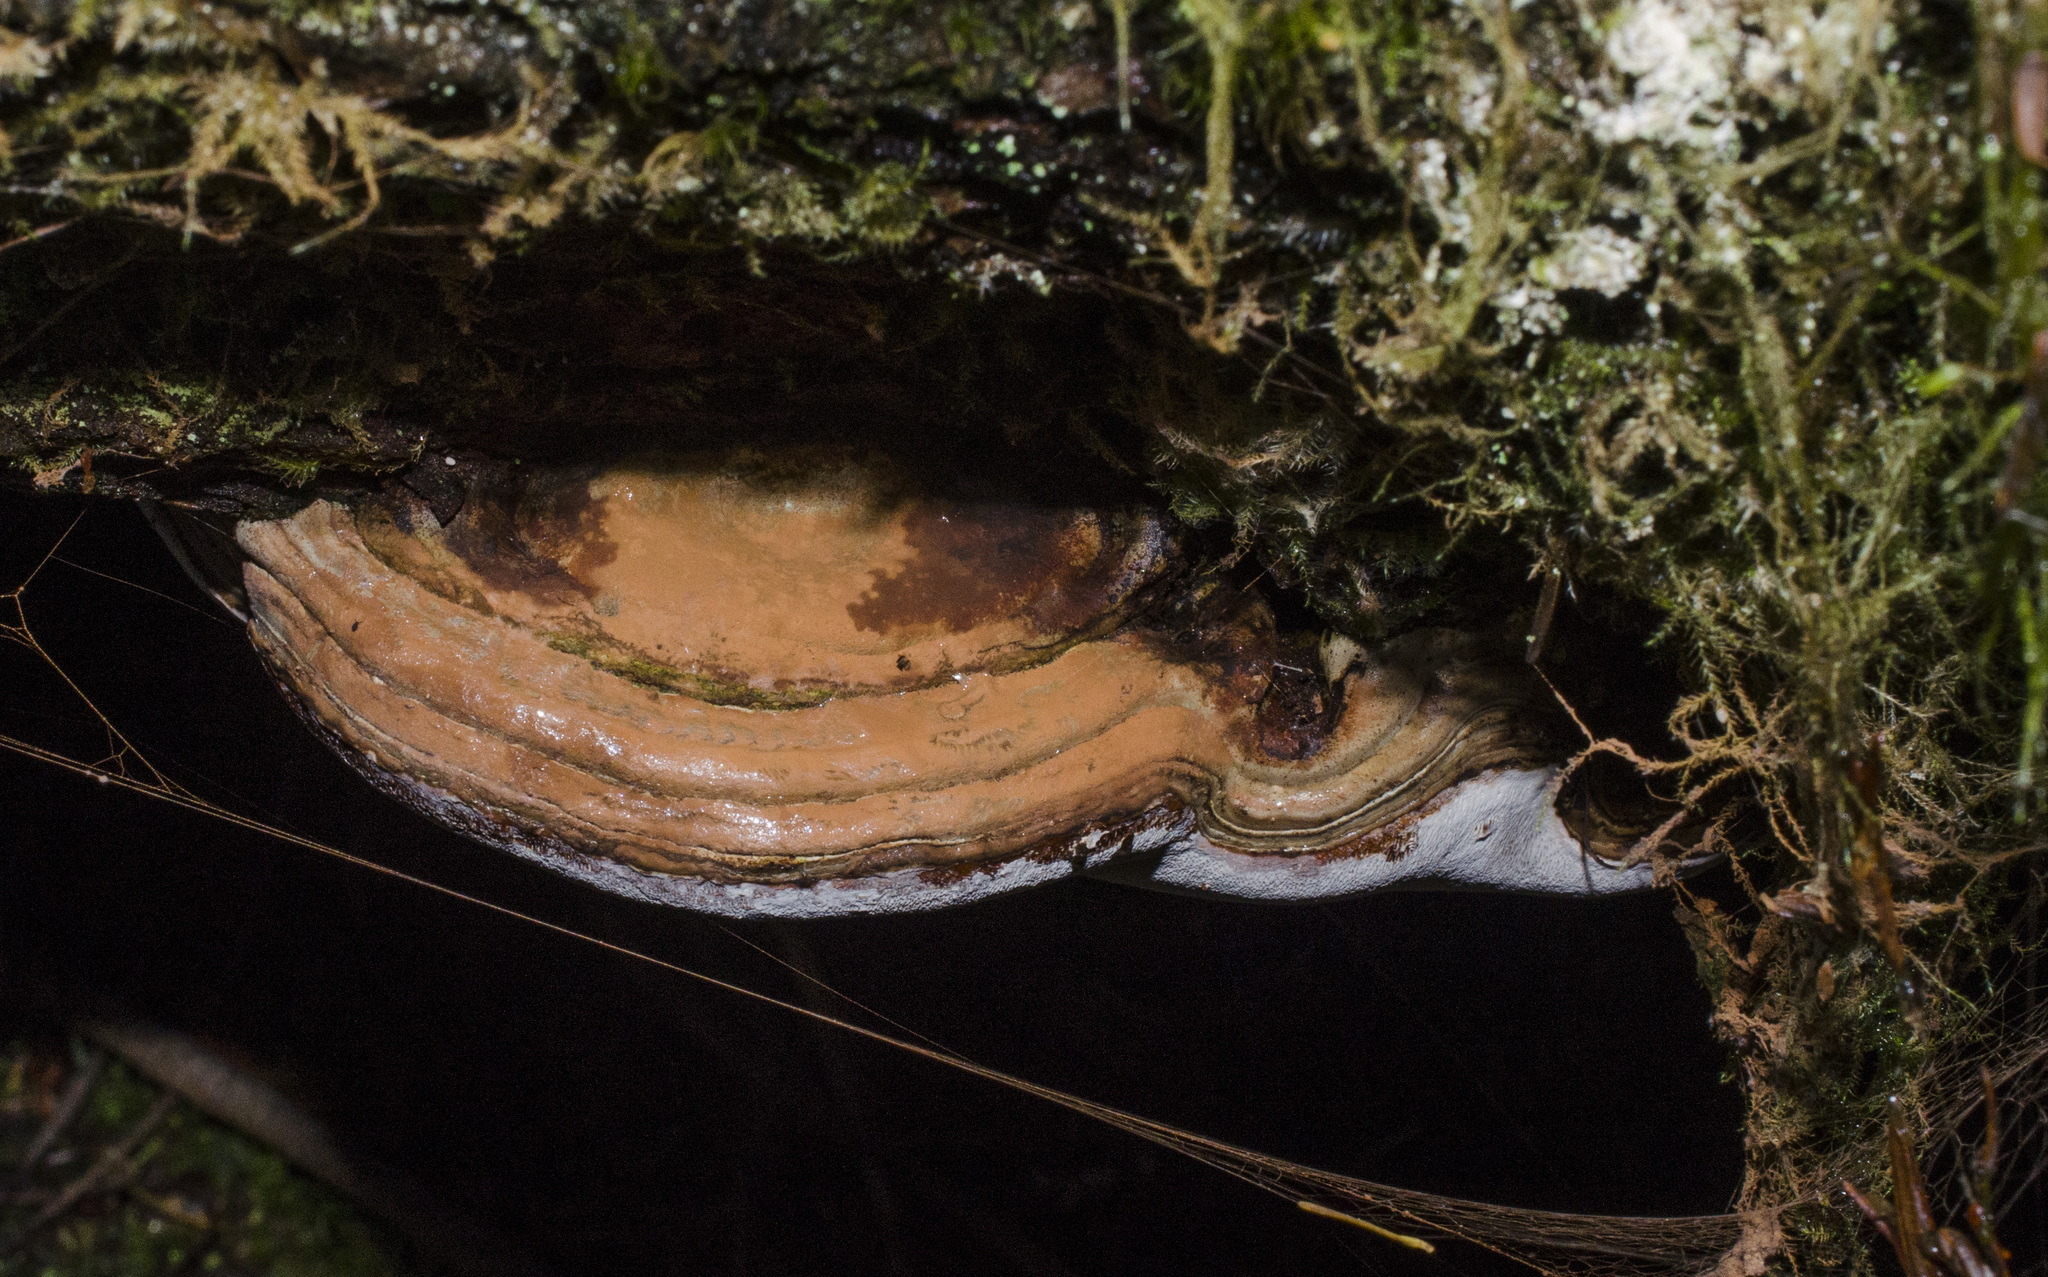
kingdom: Fungi
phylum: Basidiomycota
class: Agaricomycetes
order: Polyporales
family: Polyporaceae
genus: Ganoderma
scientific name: Ganoderma applanatum
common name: Artist's bracket
